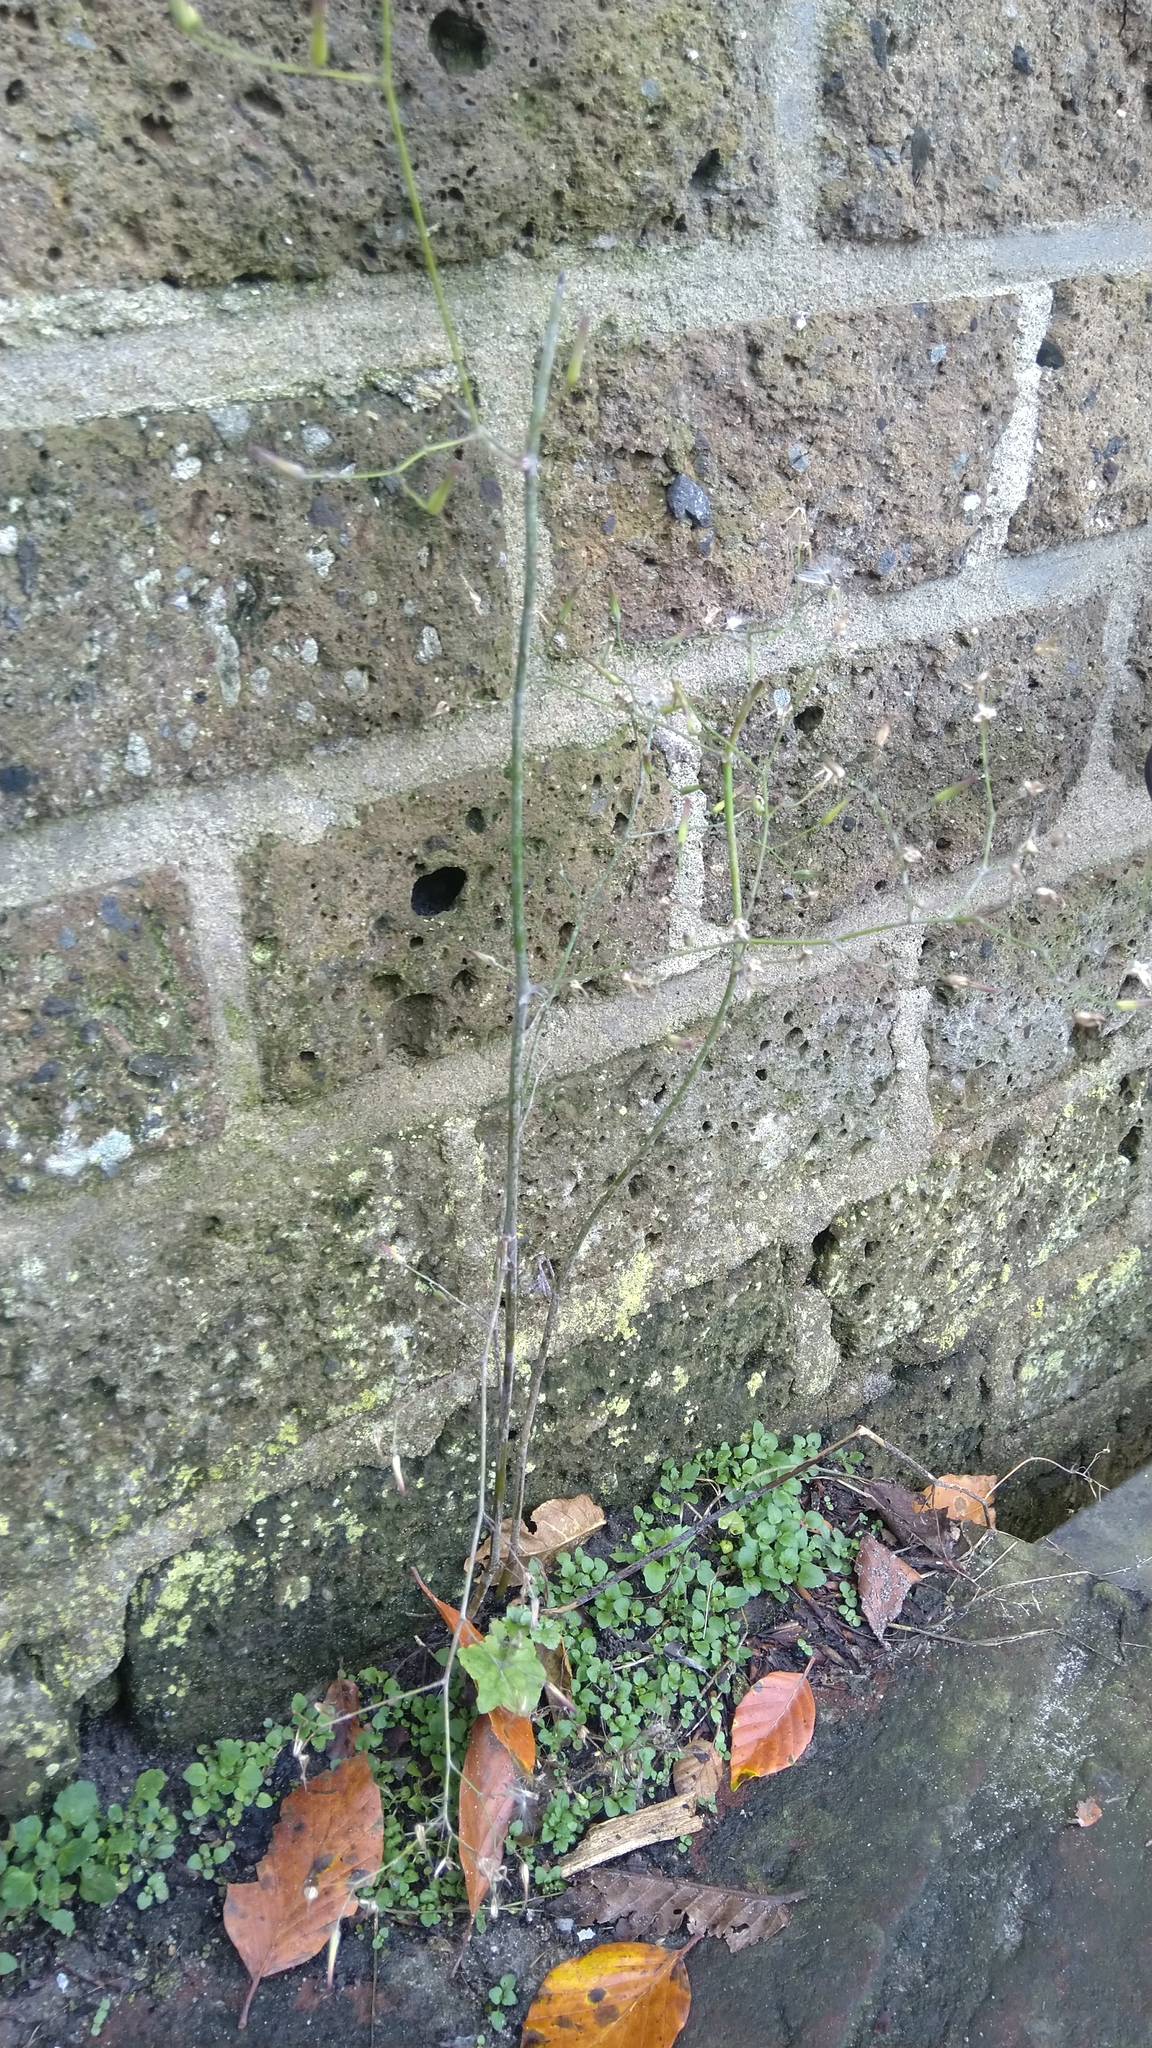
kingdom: Plantae
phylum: Tracheophyta
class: Magnoliopsida
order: Asterales
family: Asteraceae
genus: Mycelis
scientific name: Mycelis muralis
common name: Wall lettuce
